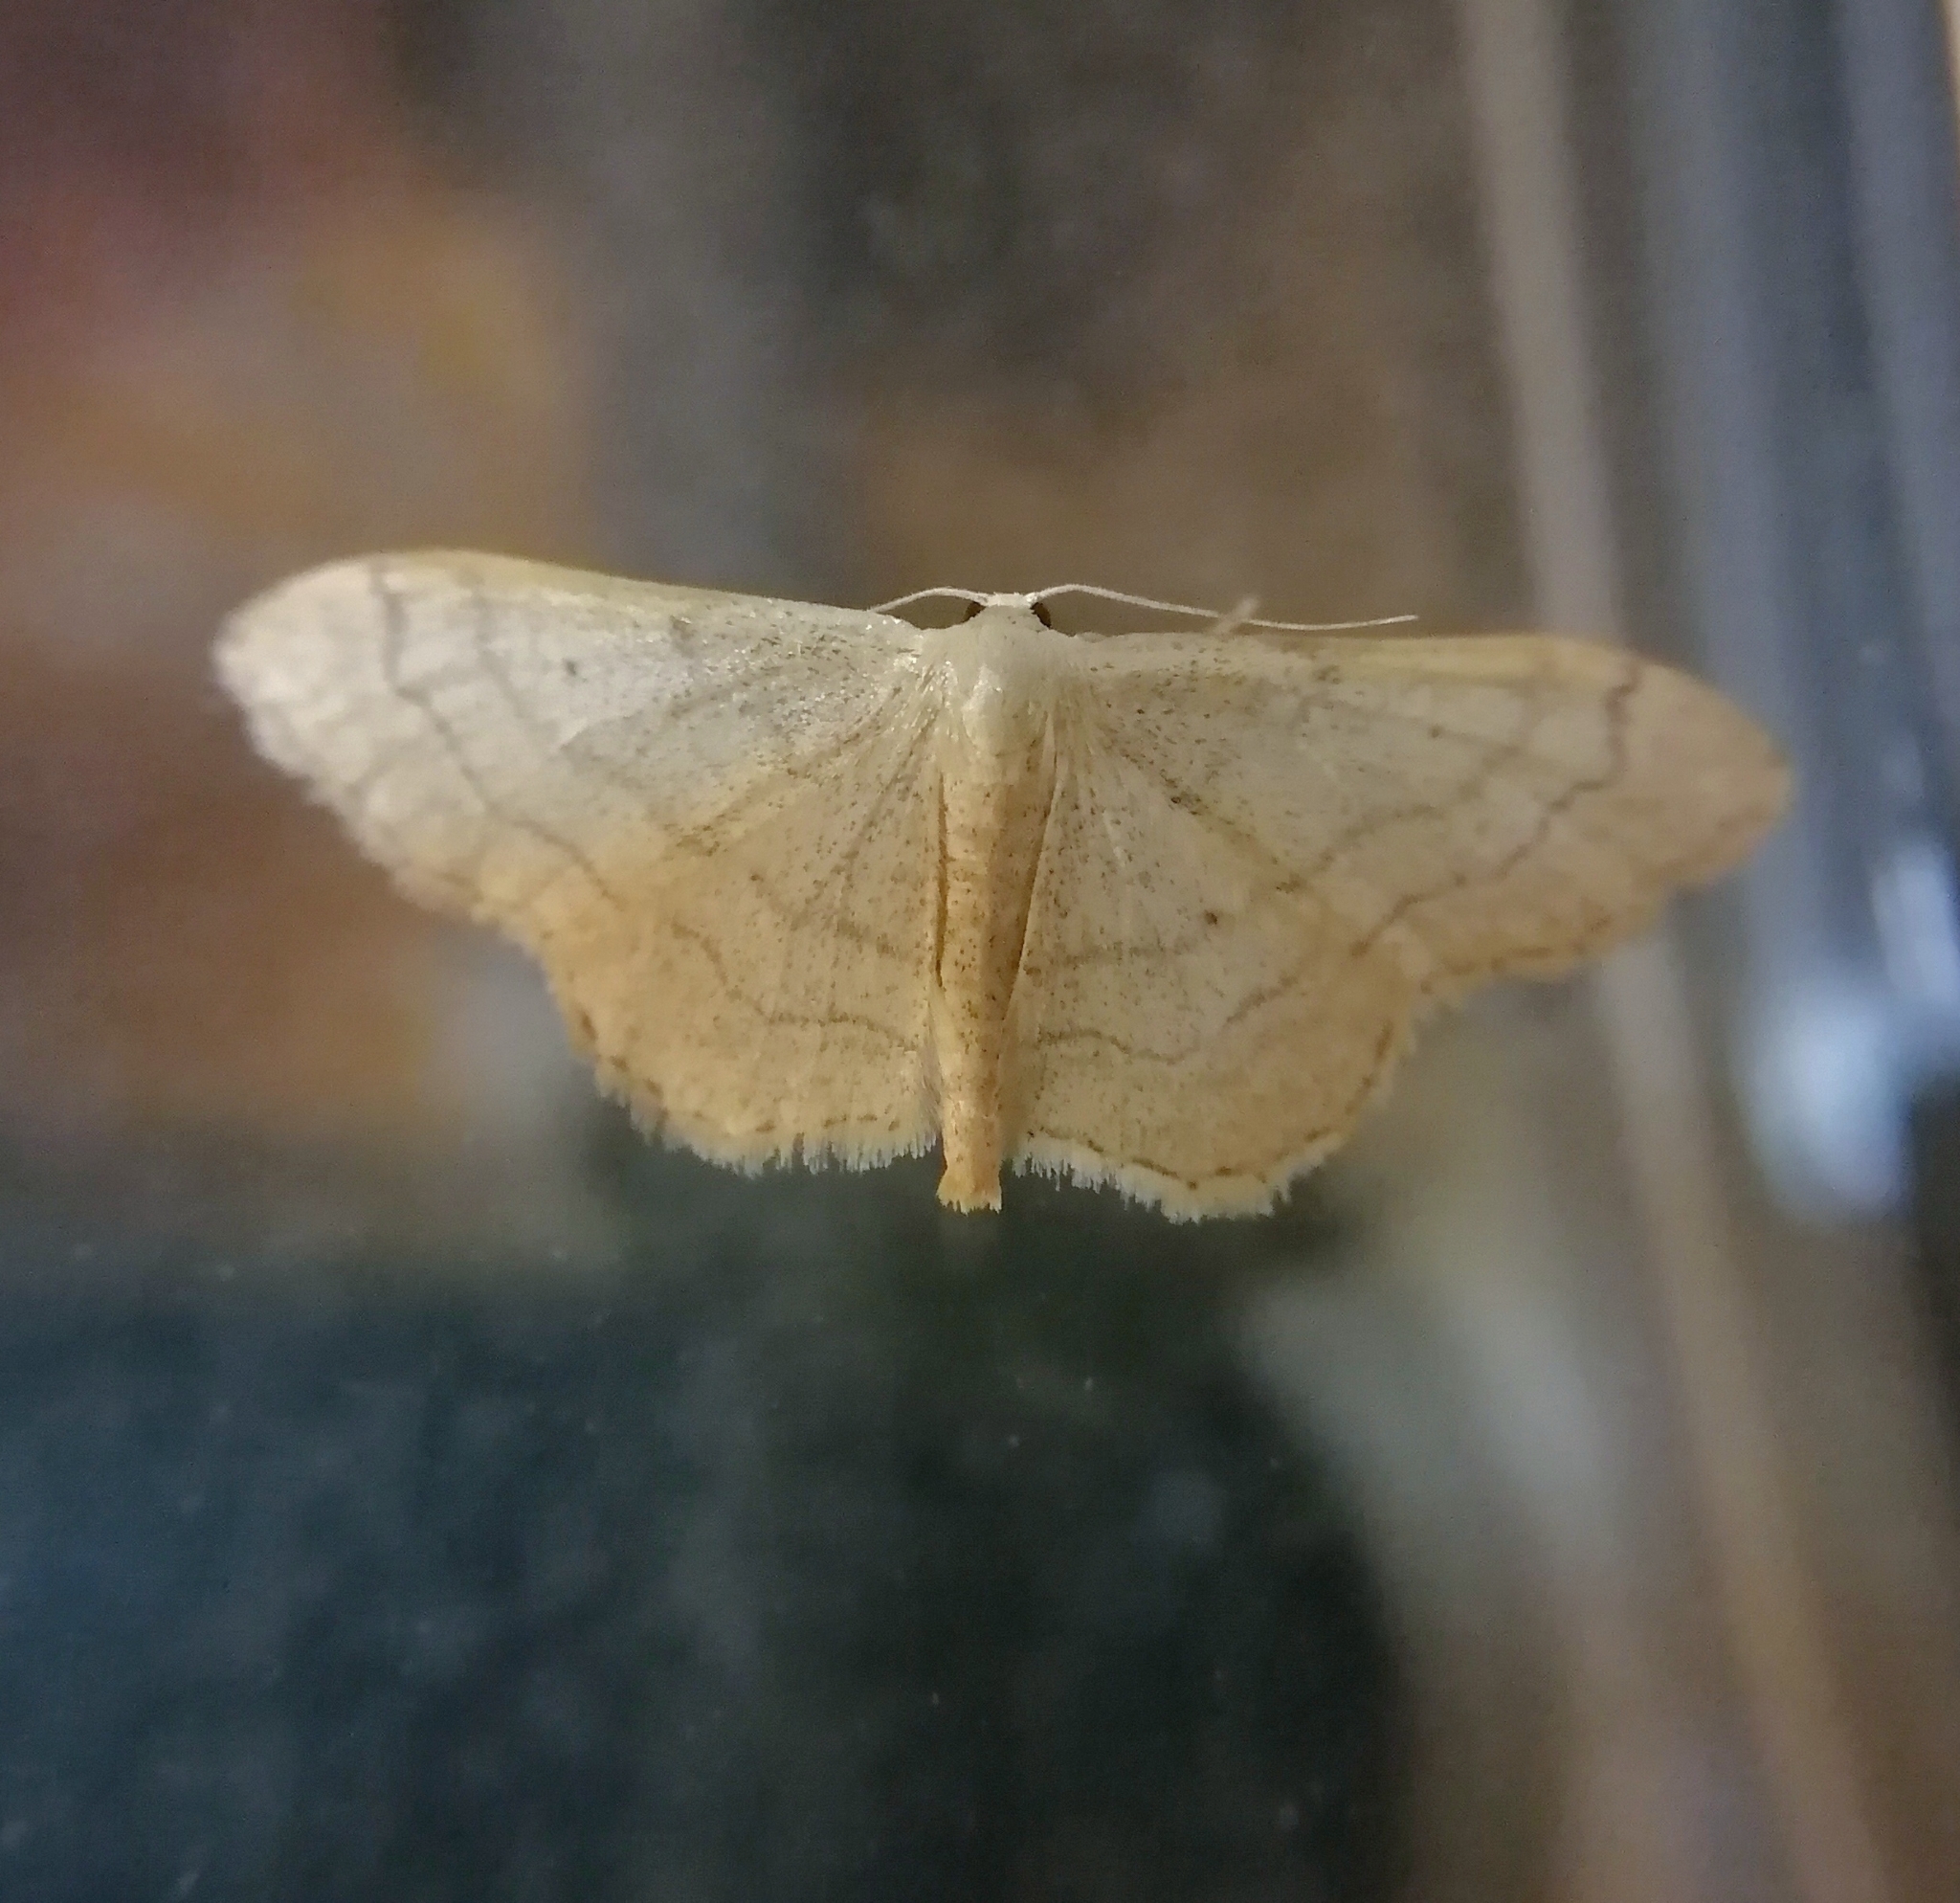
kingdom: Animalia
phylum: Arthropoda
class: Insecta
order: Lepidoptera
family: Geometridae
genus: Idaea
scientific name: Idaea aversata
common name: Riband wave
